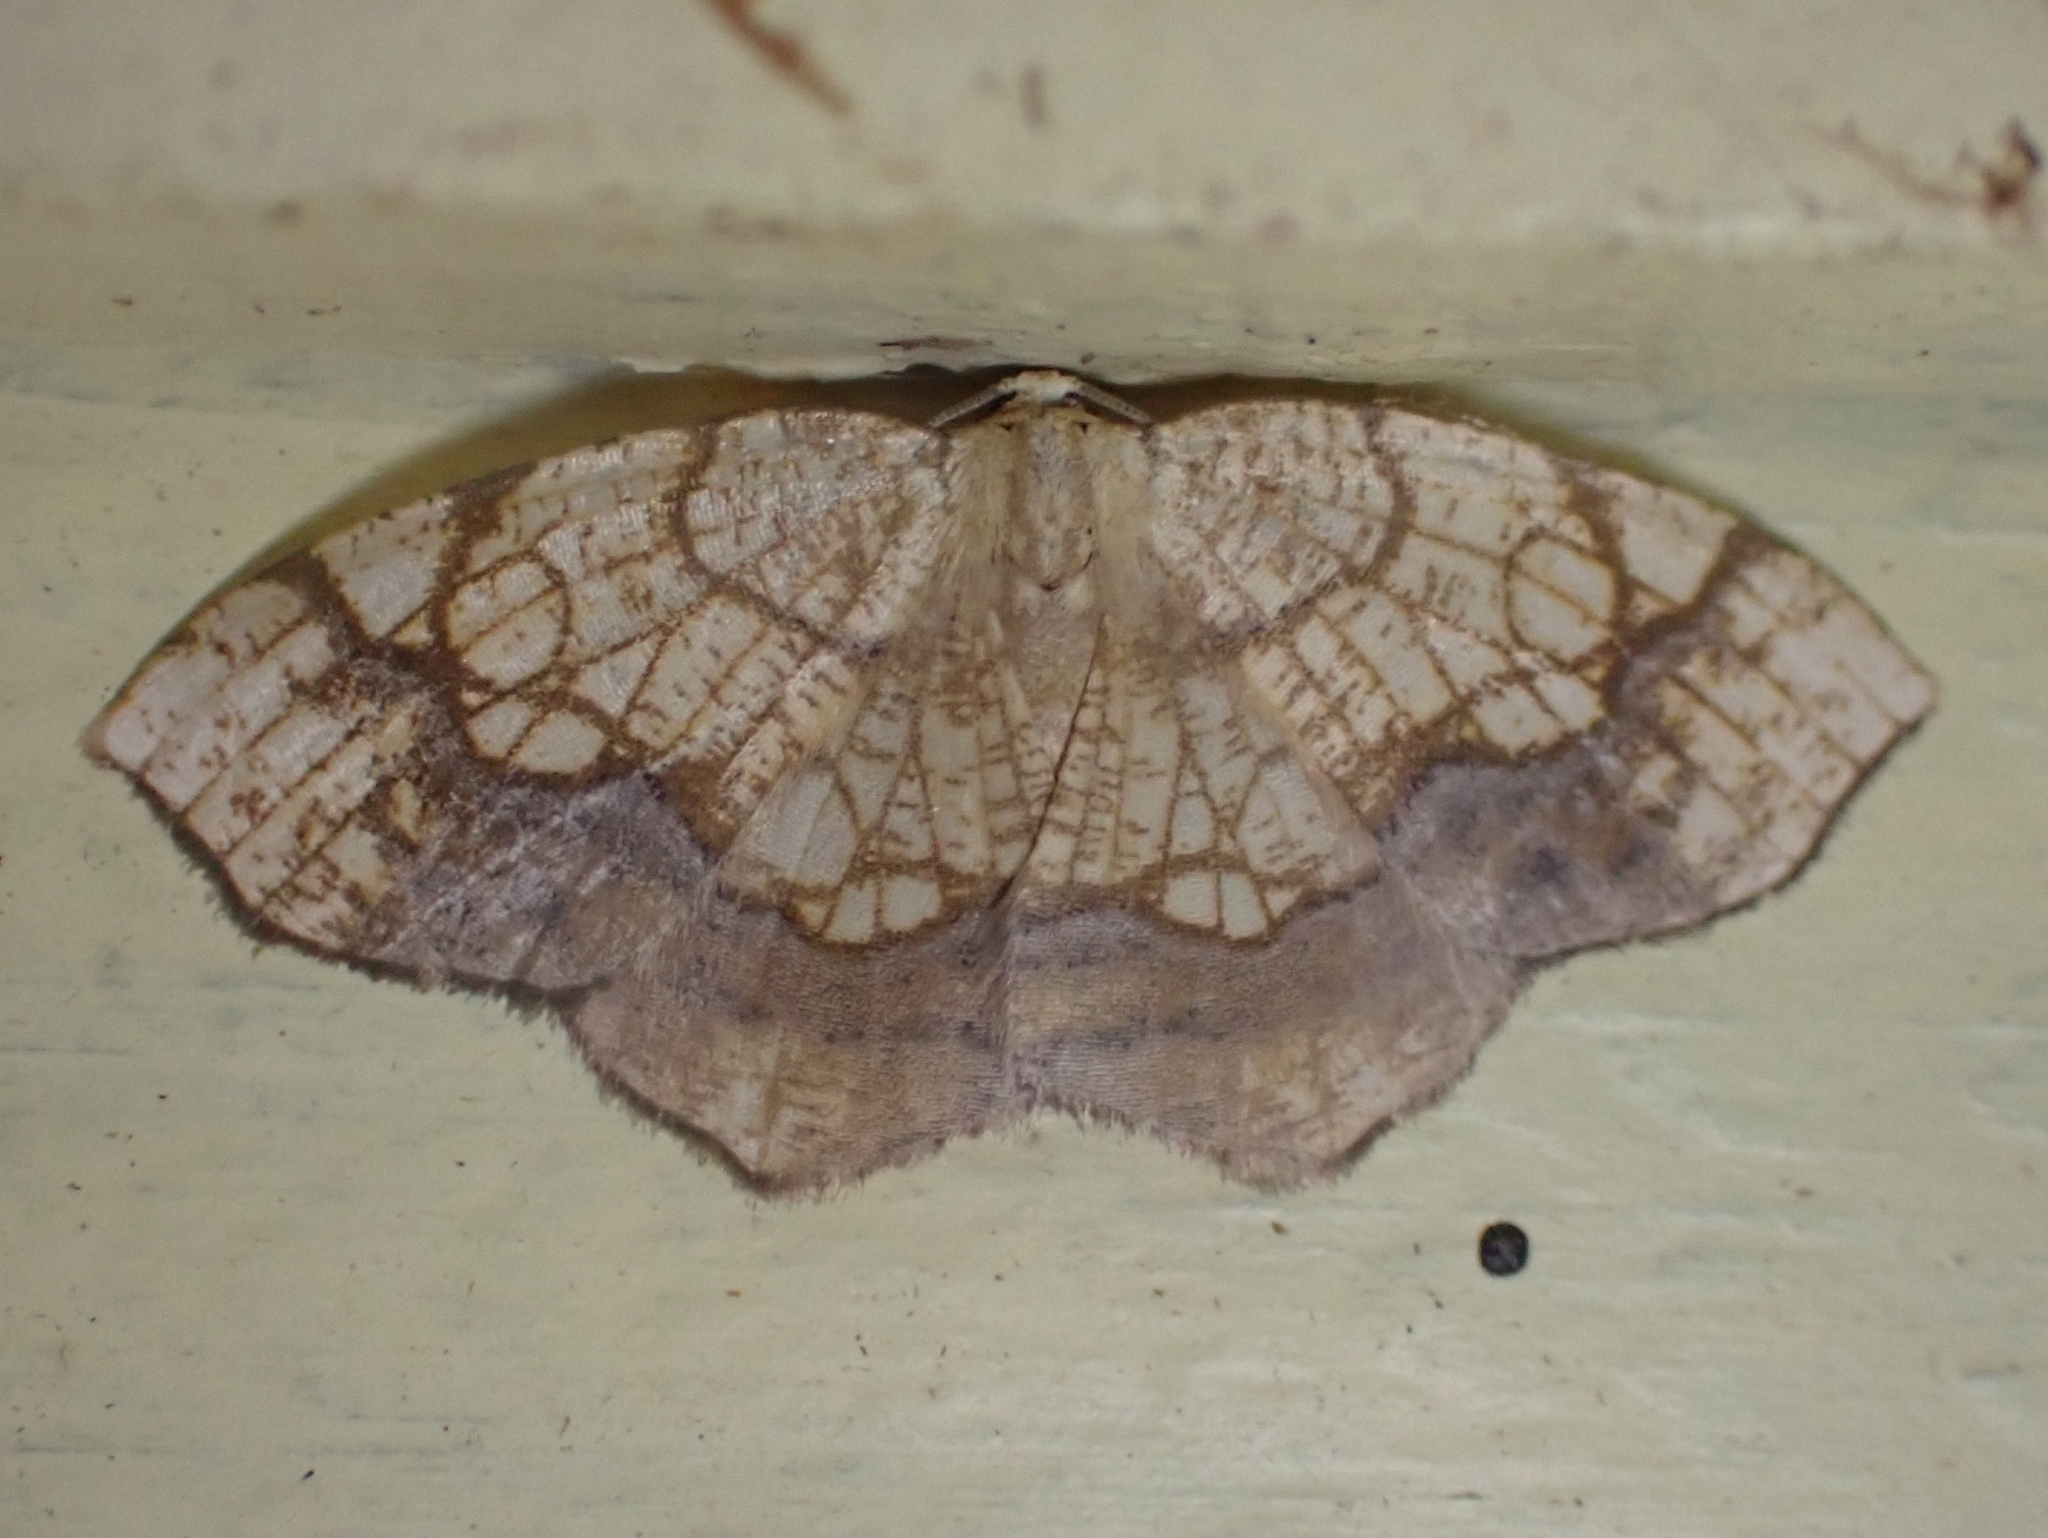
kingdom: Animalia
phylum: Arthropoda
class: Insecta
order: Lepidoptera
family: Geometridae
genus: Nematocampa
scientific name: Nematocampa resistaria
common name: Horned spanworm moth
